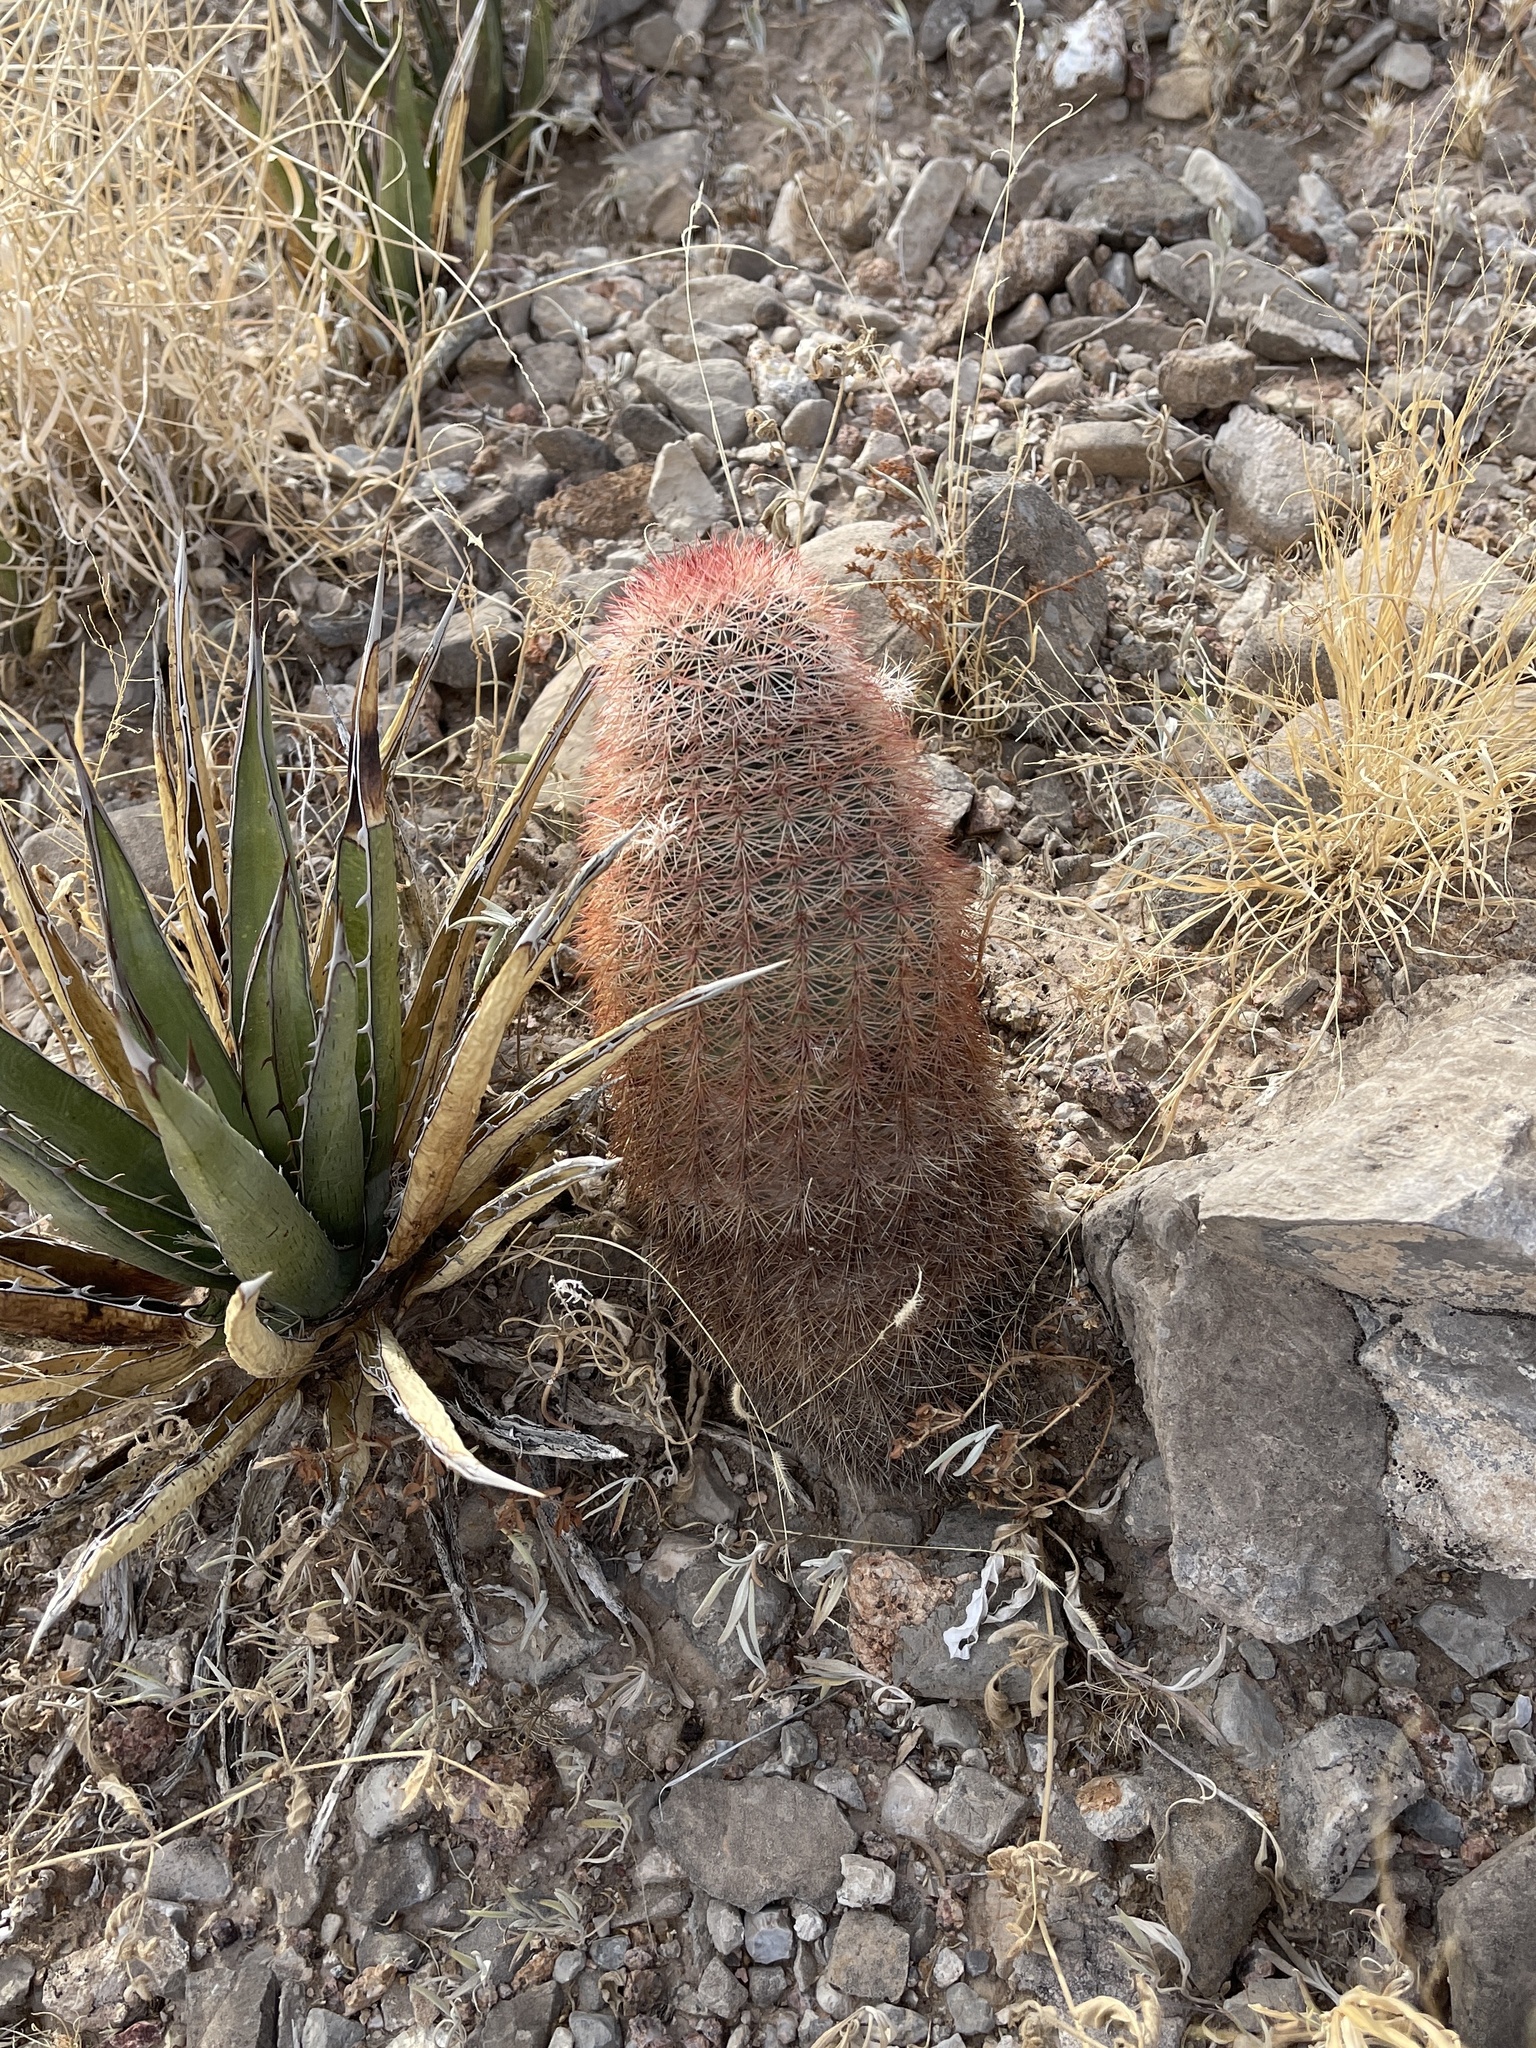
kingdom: Plantae
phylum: Tracheophyta
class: Magnoliopsida
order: Caryophyllales
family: Cactaceae
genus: Echinocereus
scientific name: Echinocereus dasyacanthus
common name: Spiny hedgehog cactus
